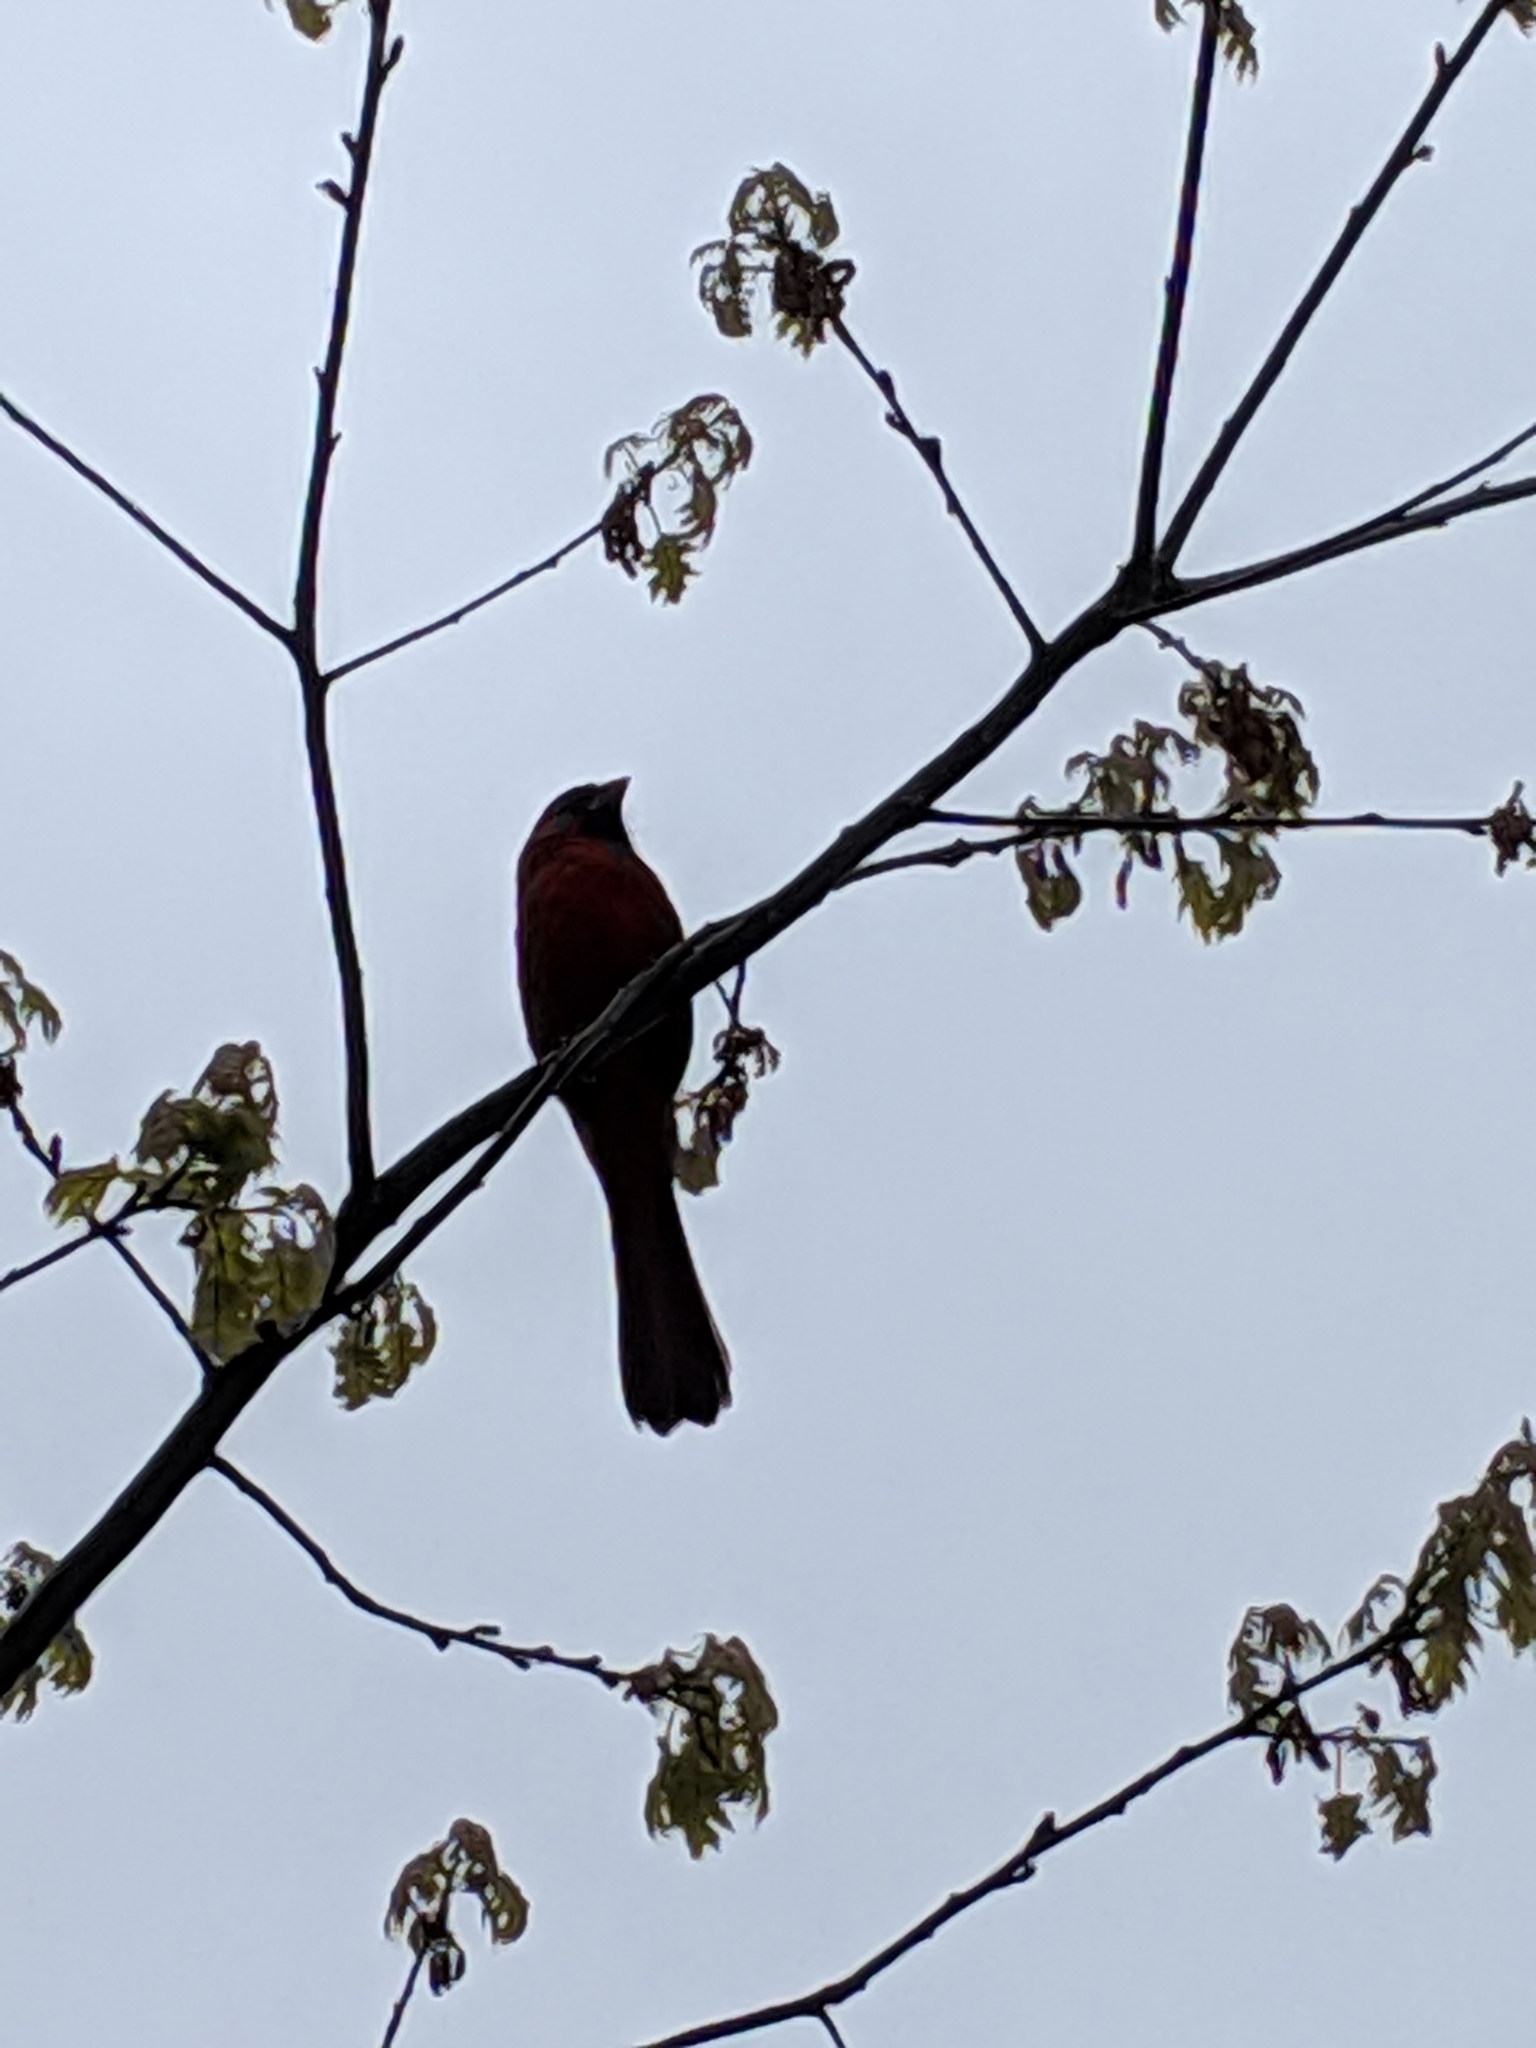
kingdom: Animalia
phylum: Chordata
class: Aves
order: Passeriformes
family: Cardinalidae
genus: Cardinalis
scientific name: Cardinalis cardinalis
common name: Northern cardinal
